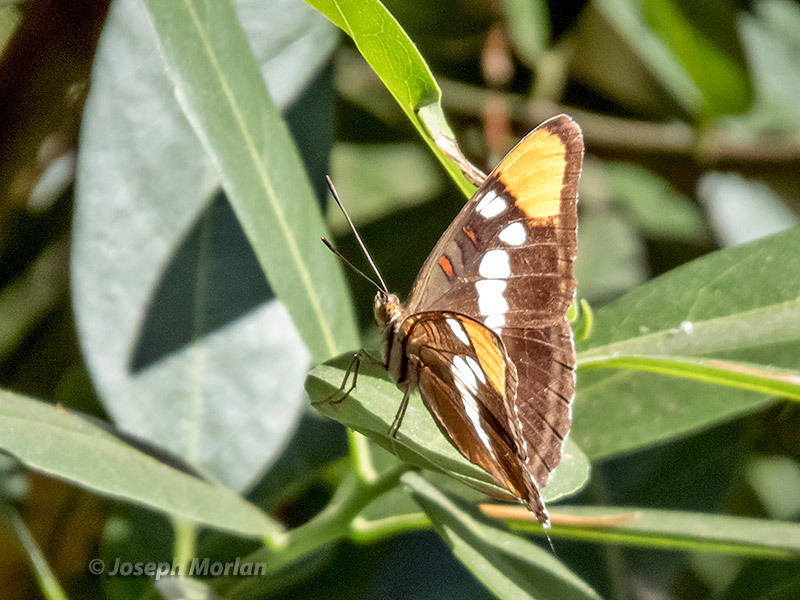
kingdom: Animalia
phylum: Arthropoda
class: Insecta
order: Lepidoptera
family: Nymphalidae
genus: Limenitis
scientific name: Limenitis bredowii
